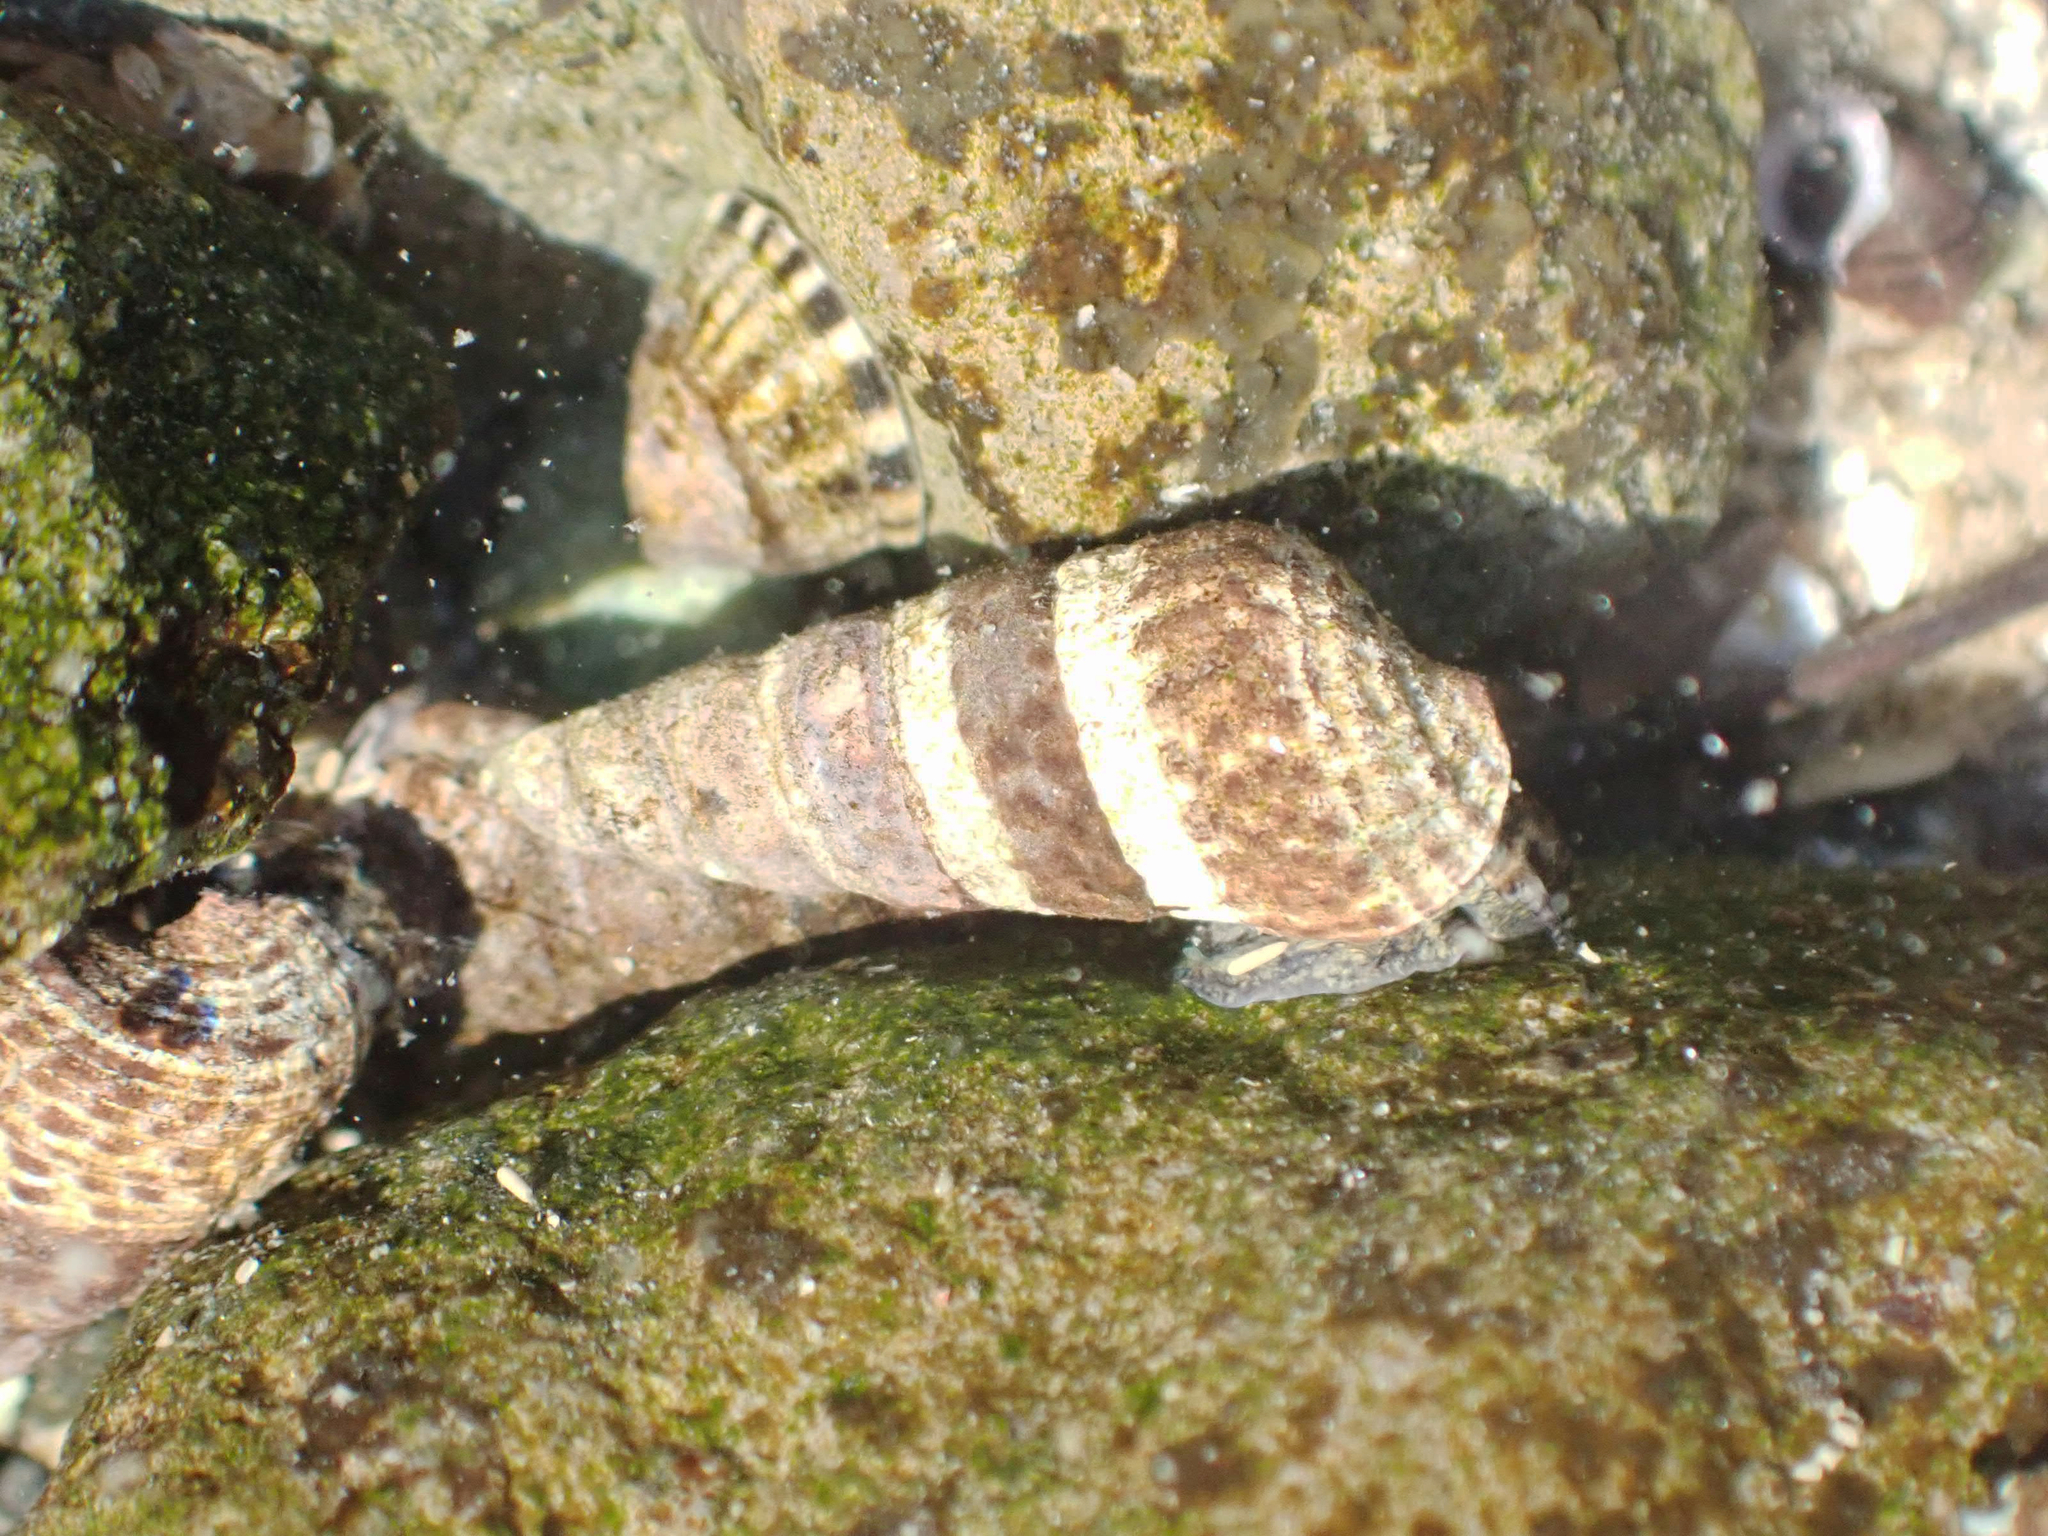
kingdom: Animalia
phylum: Mollusca
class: Gastropoda
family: Batillariidae
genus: Batillaria
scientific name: Batillaria attramentaria
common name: Japanese false cerith
